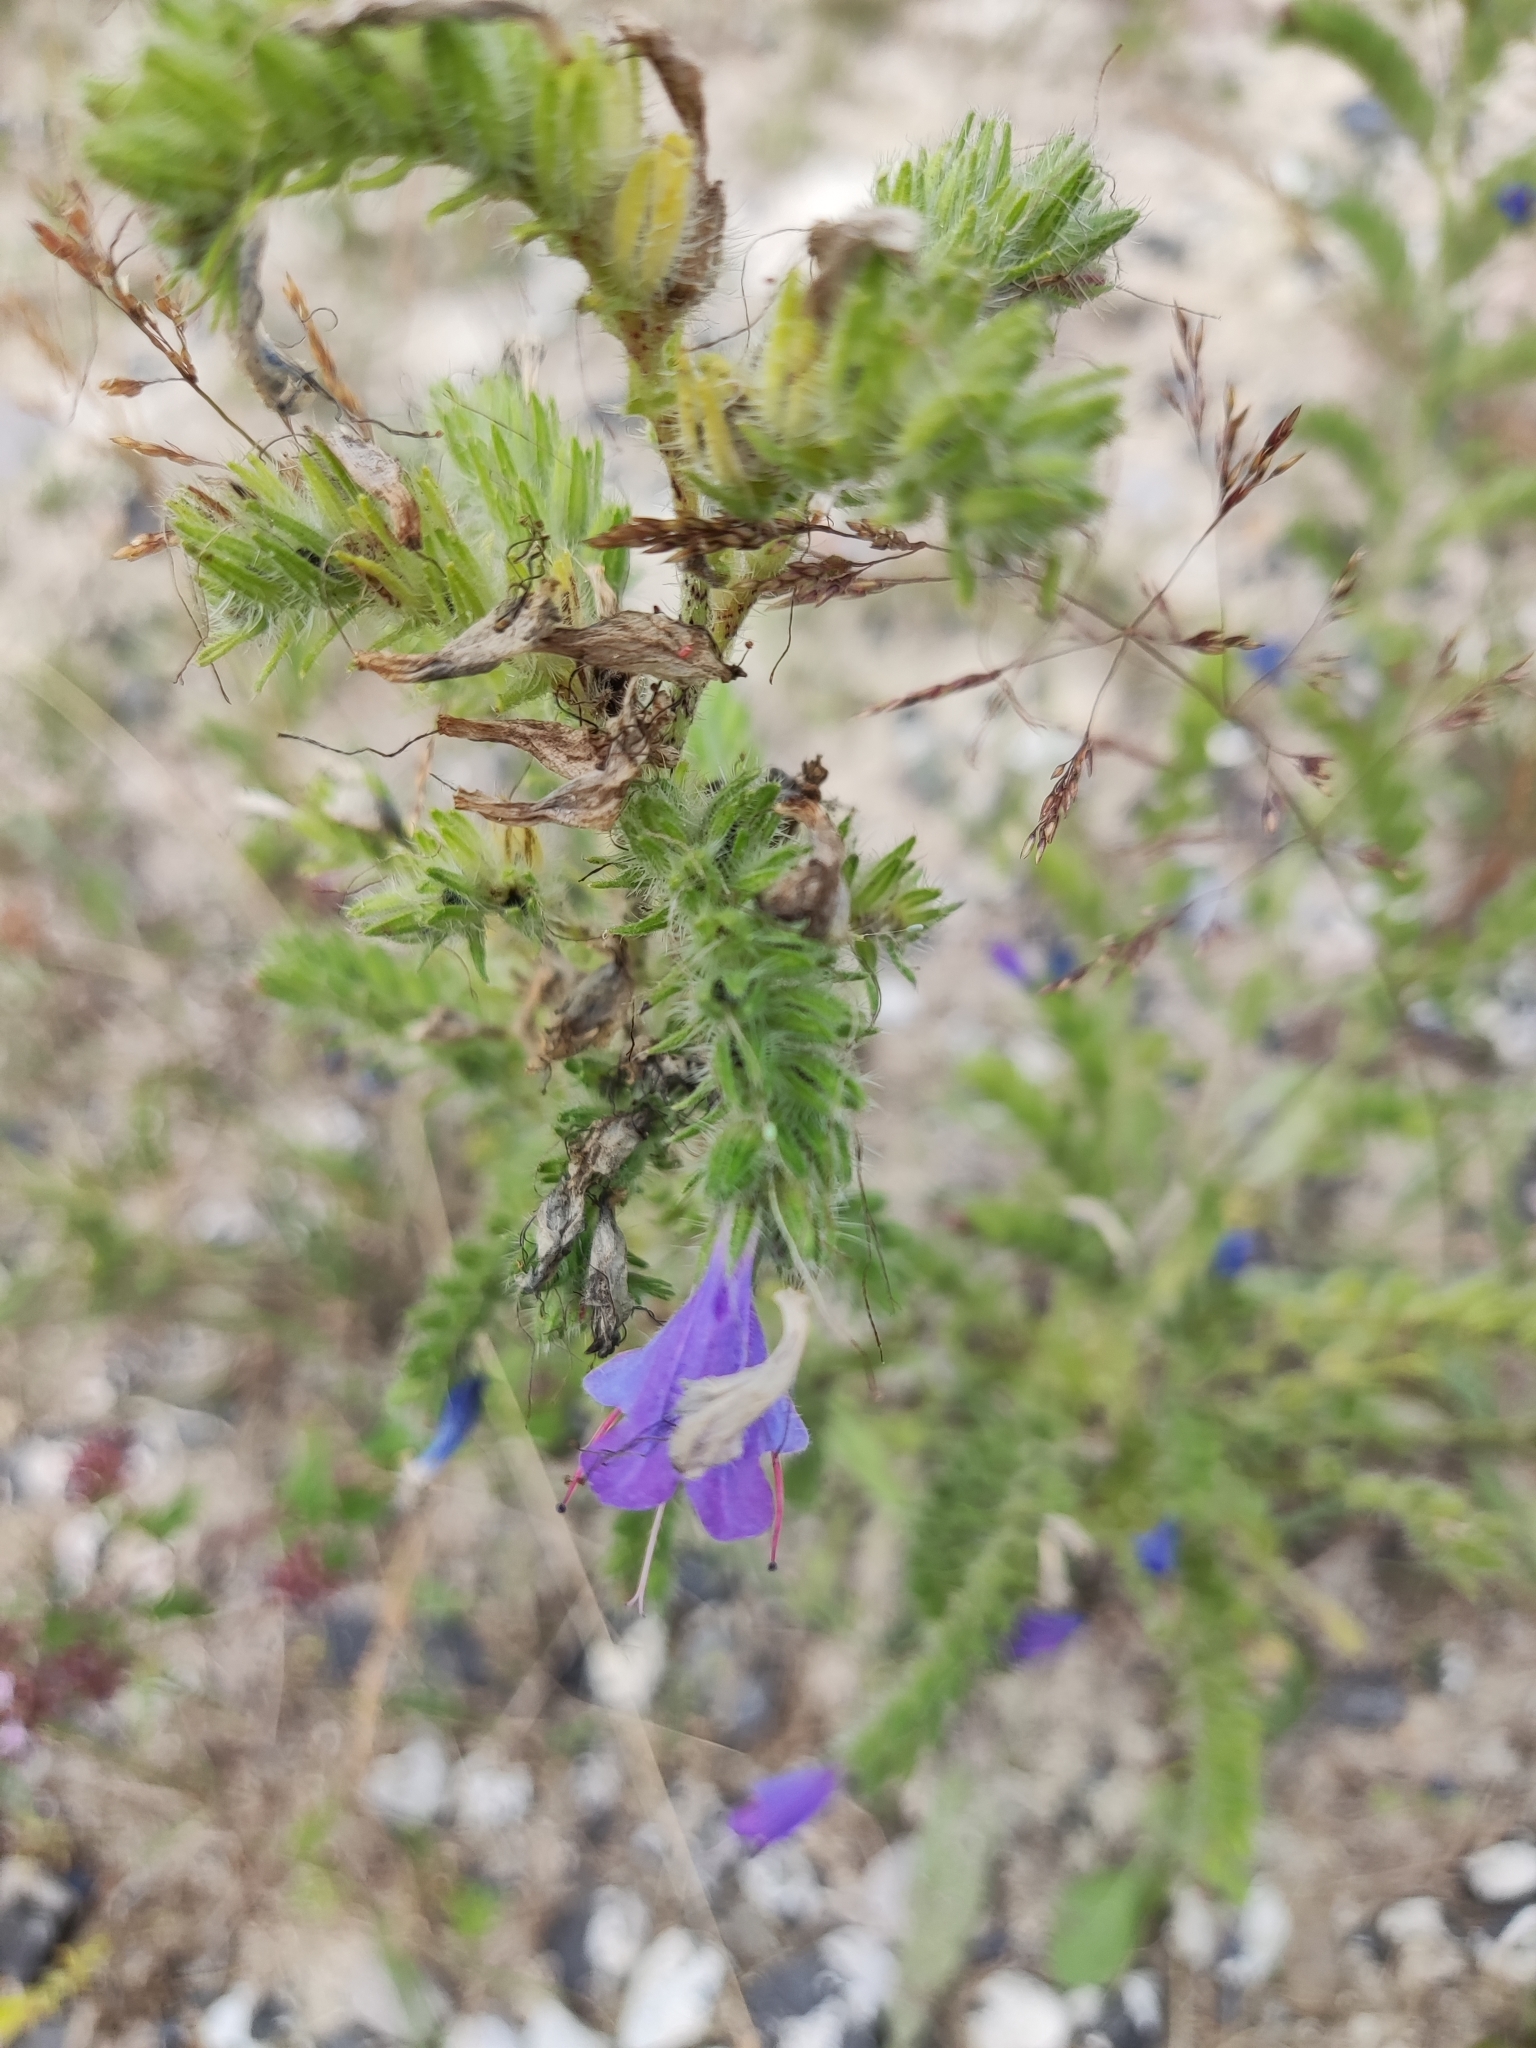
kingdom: Plantae
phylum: Tracheophyta
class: Magnoliopsida
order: Boraginales
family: Boraginaceae
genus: Echium
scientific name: Echium vulgare
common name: Common viper's bugloss
